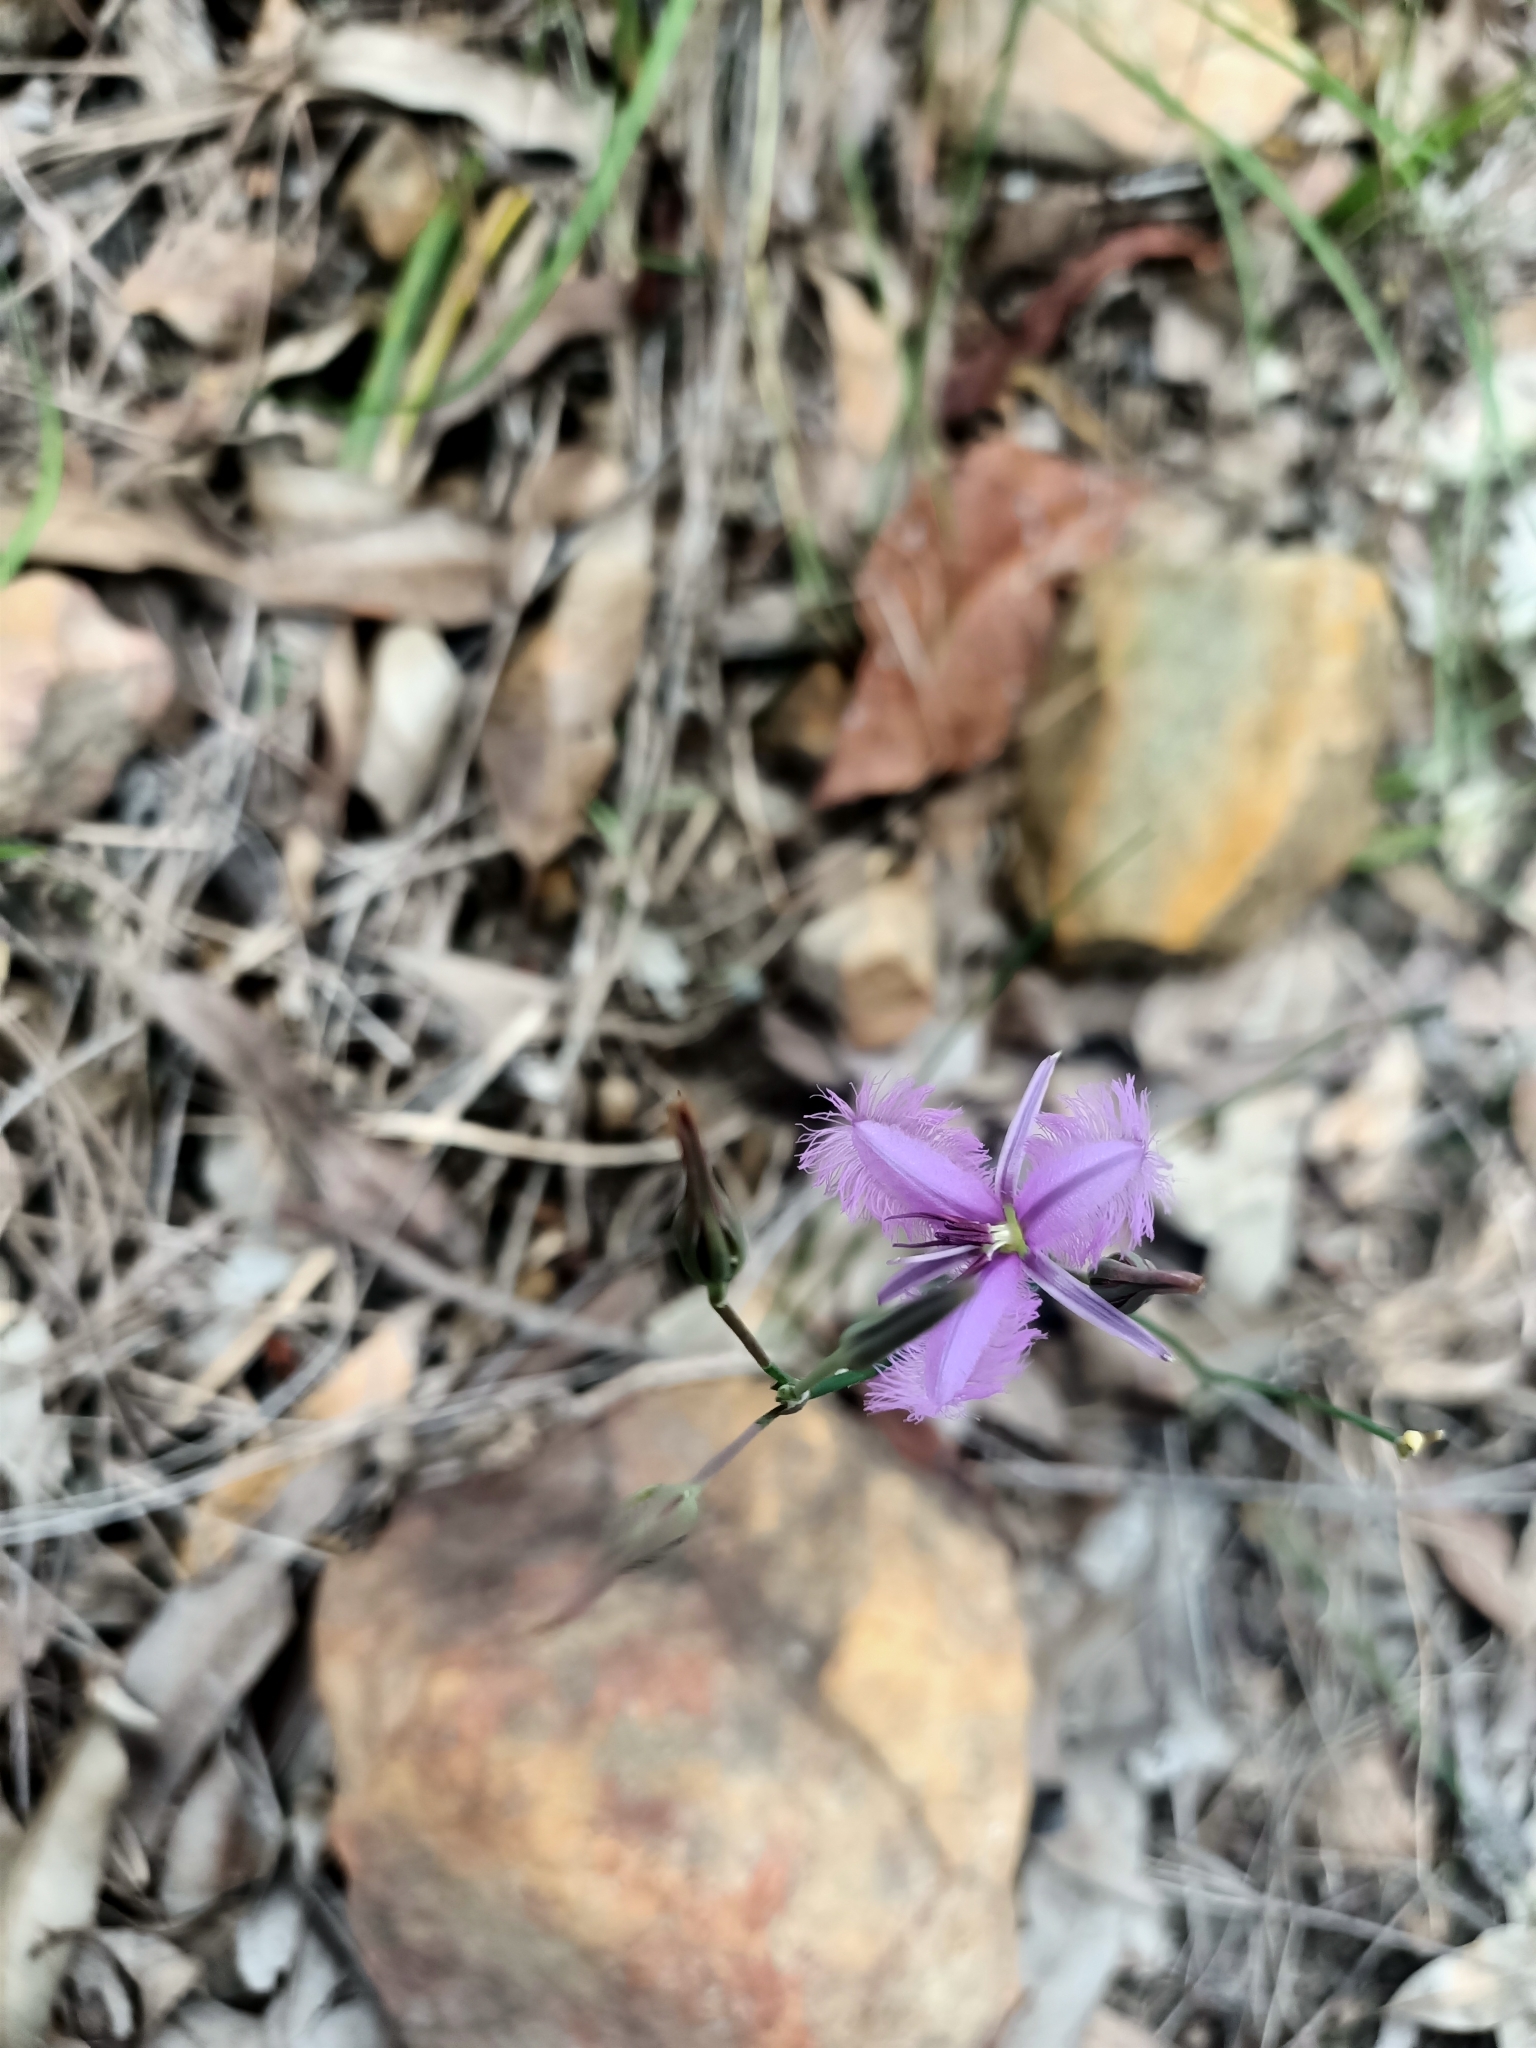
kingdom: Plantae
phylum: Tracheophyta
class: Liliopsida
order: Asparagales
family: Asparagaceae
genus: Thysanotus
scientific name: Thysanotus tuberosus
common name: Common fringed-lily
